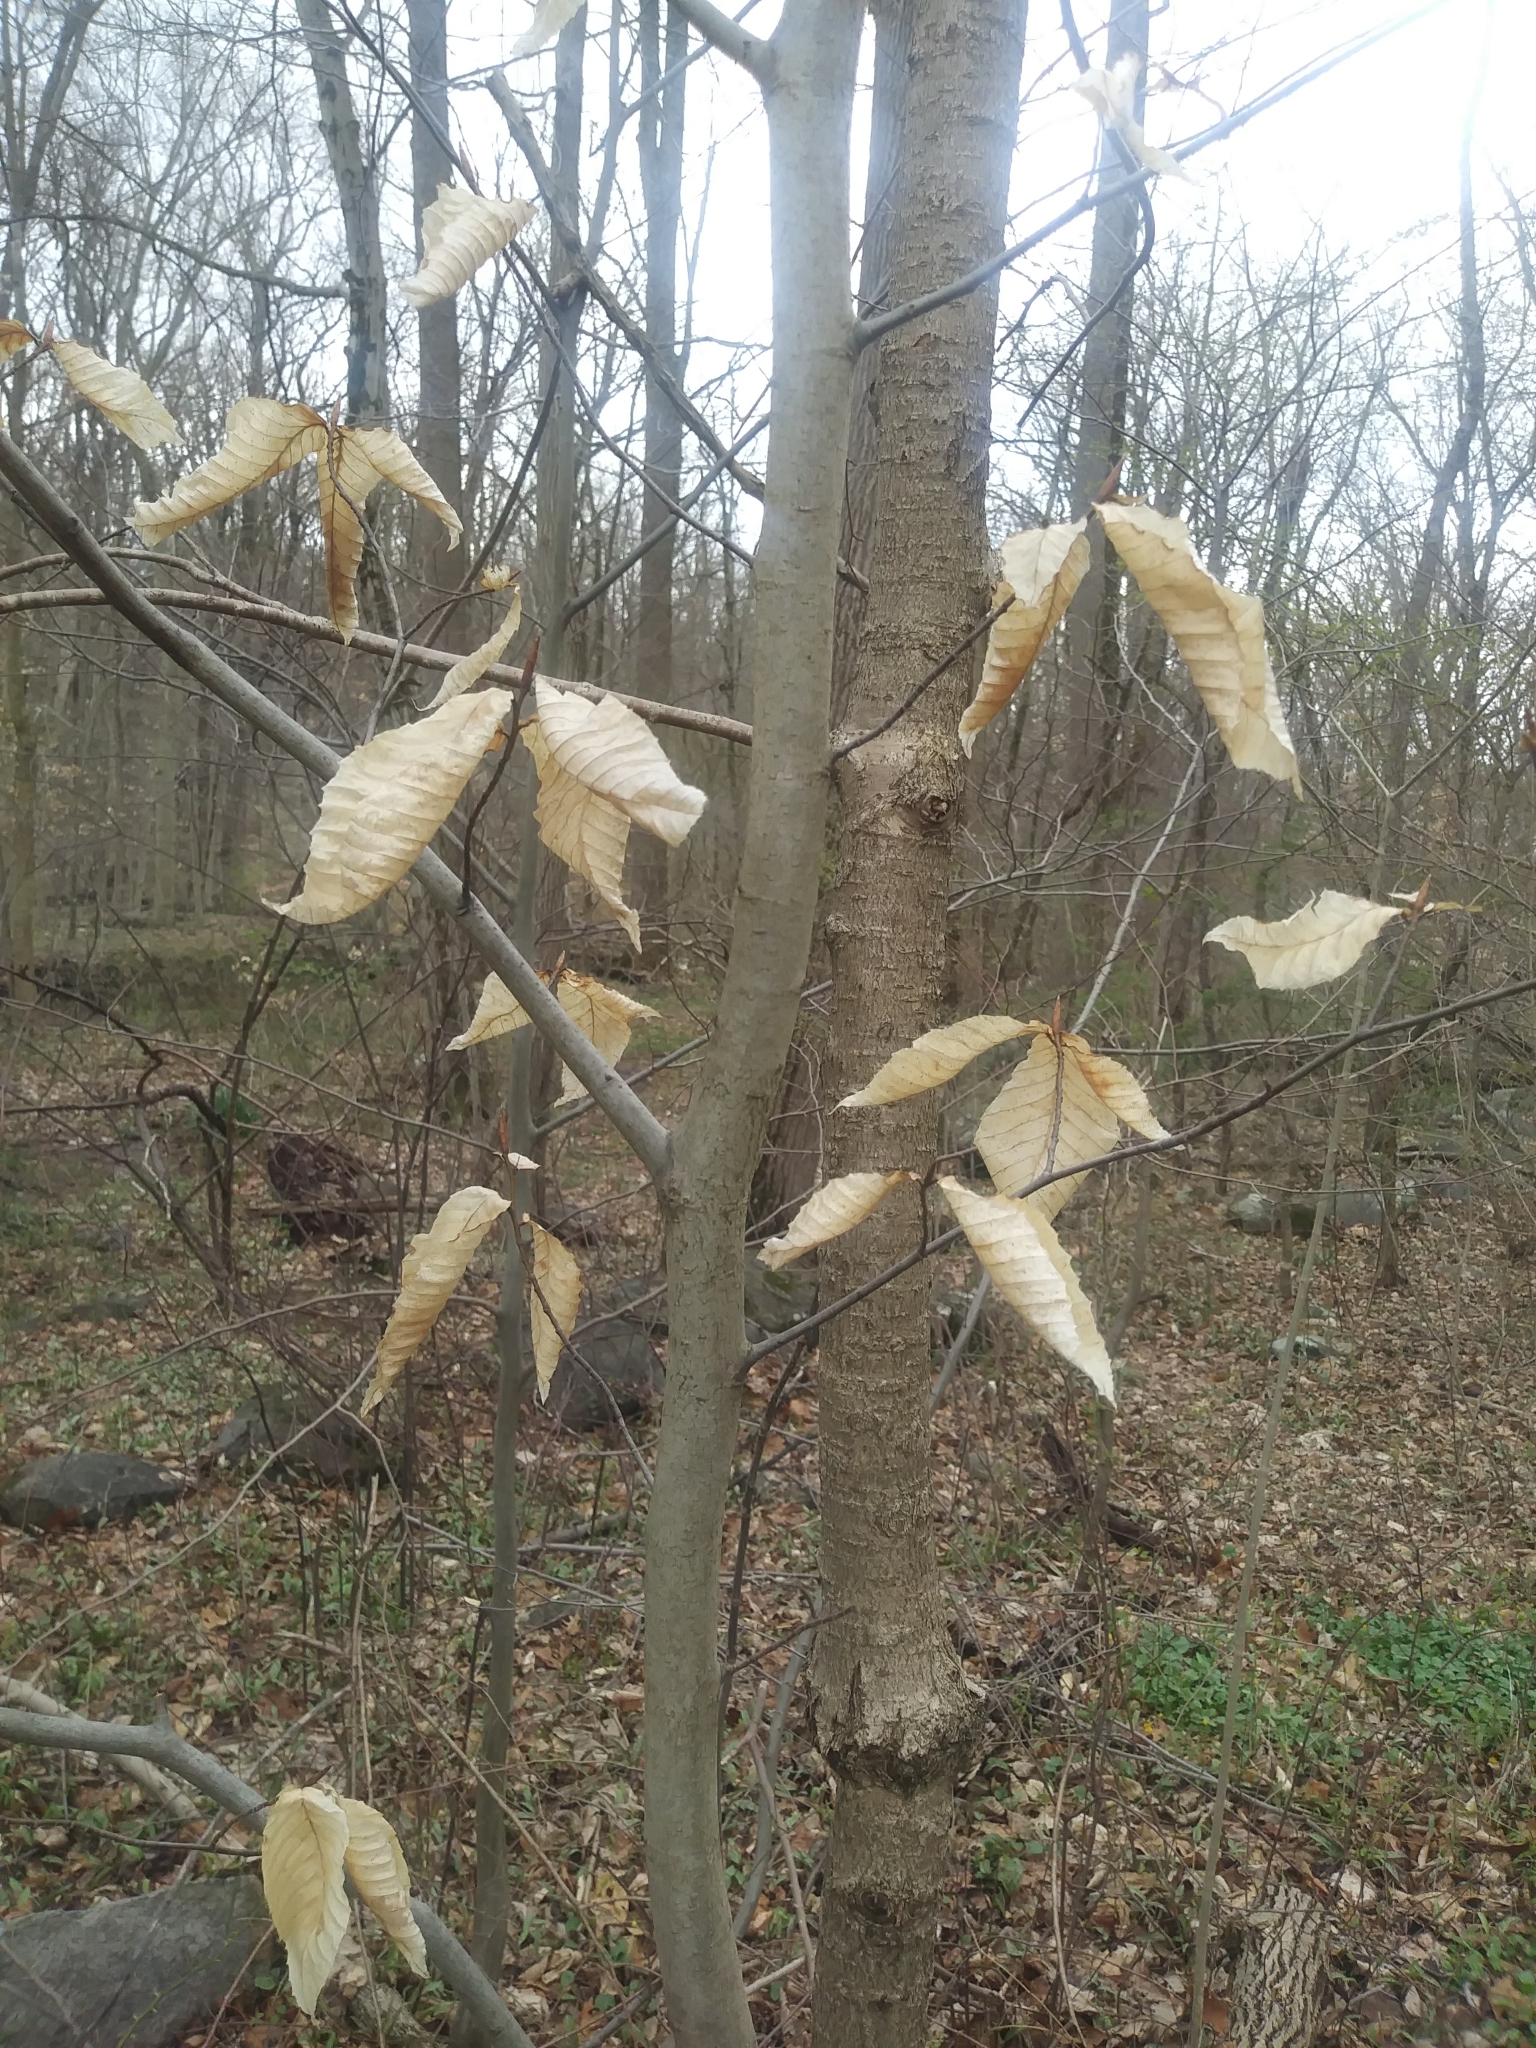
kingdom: Plantae
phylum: Tracheophyta
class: Magnoliopsida
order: Fagales
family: Fagaceae
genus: Fagus
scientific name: Fagus grandifolia
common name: American beech
